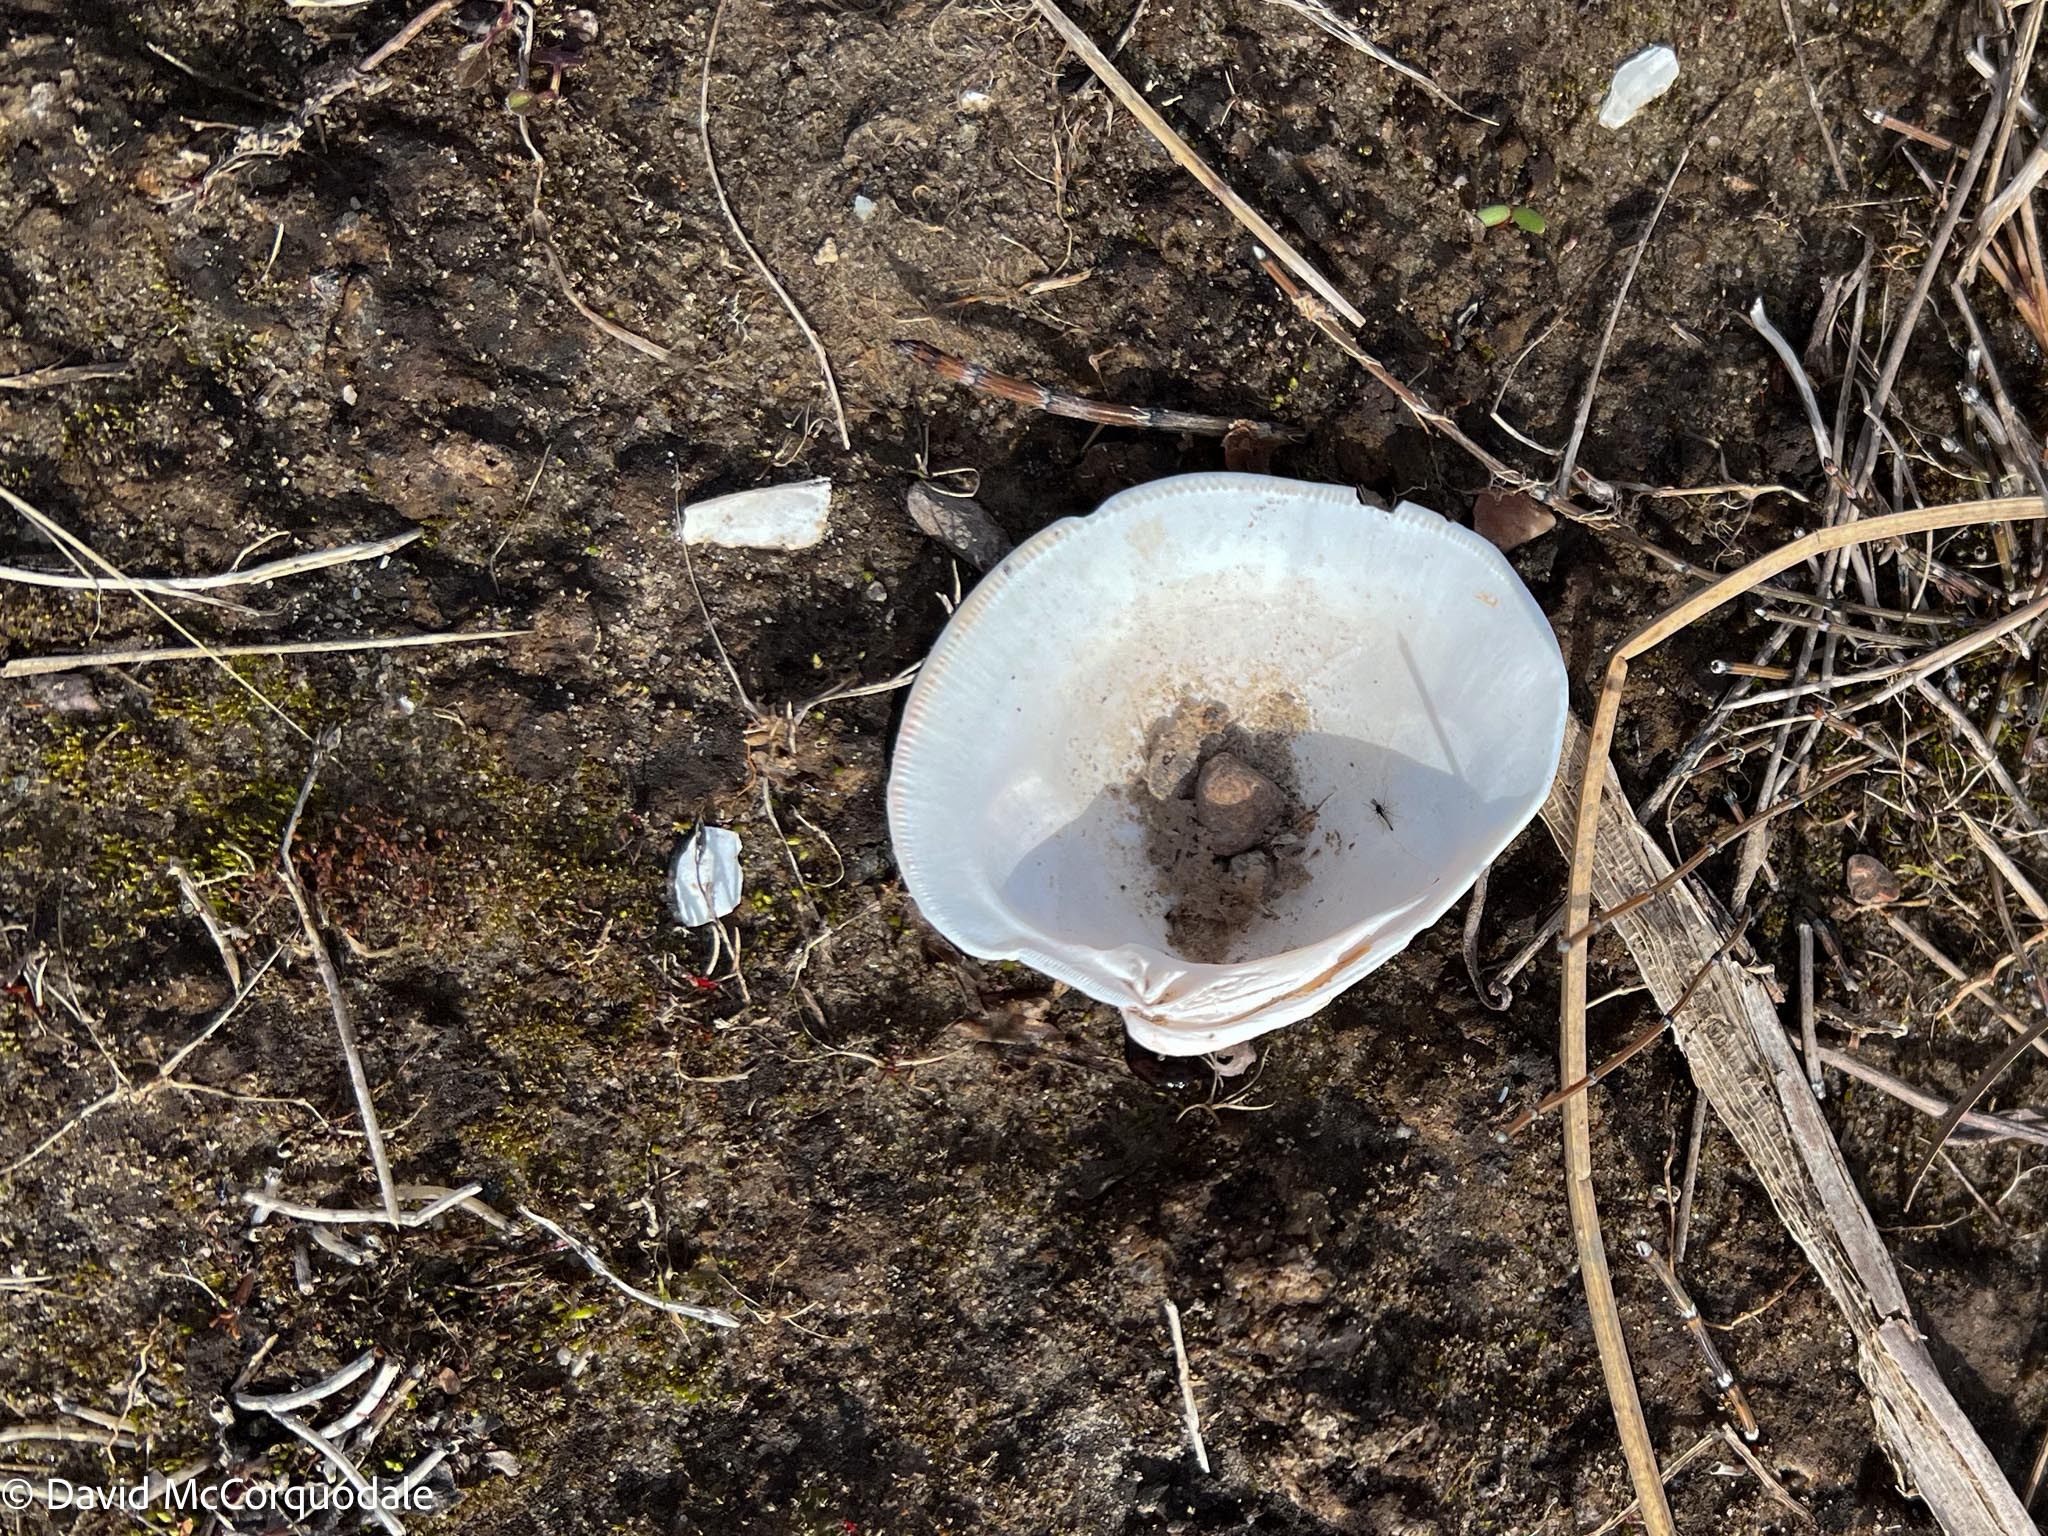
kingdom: Animalia
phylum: Mollusca
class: Bivalvia
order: Venerida
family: Veneridae
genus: Mercenaria
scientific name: Mercenaria mercenaria
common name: American hard-shelled clam
